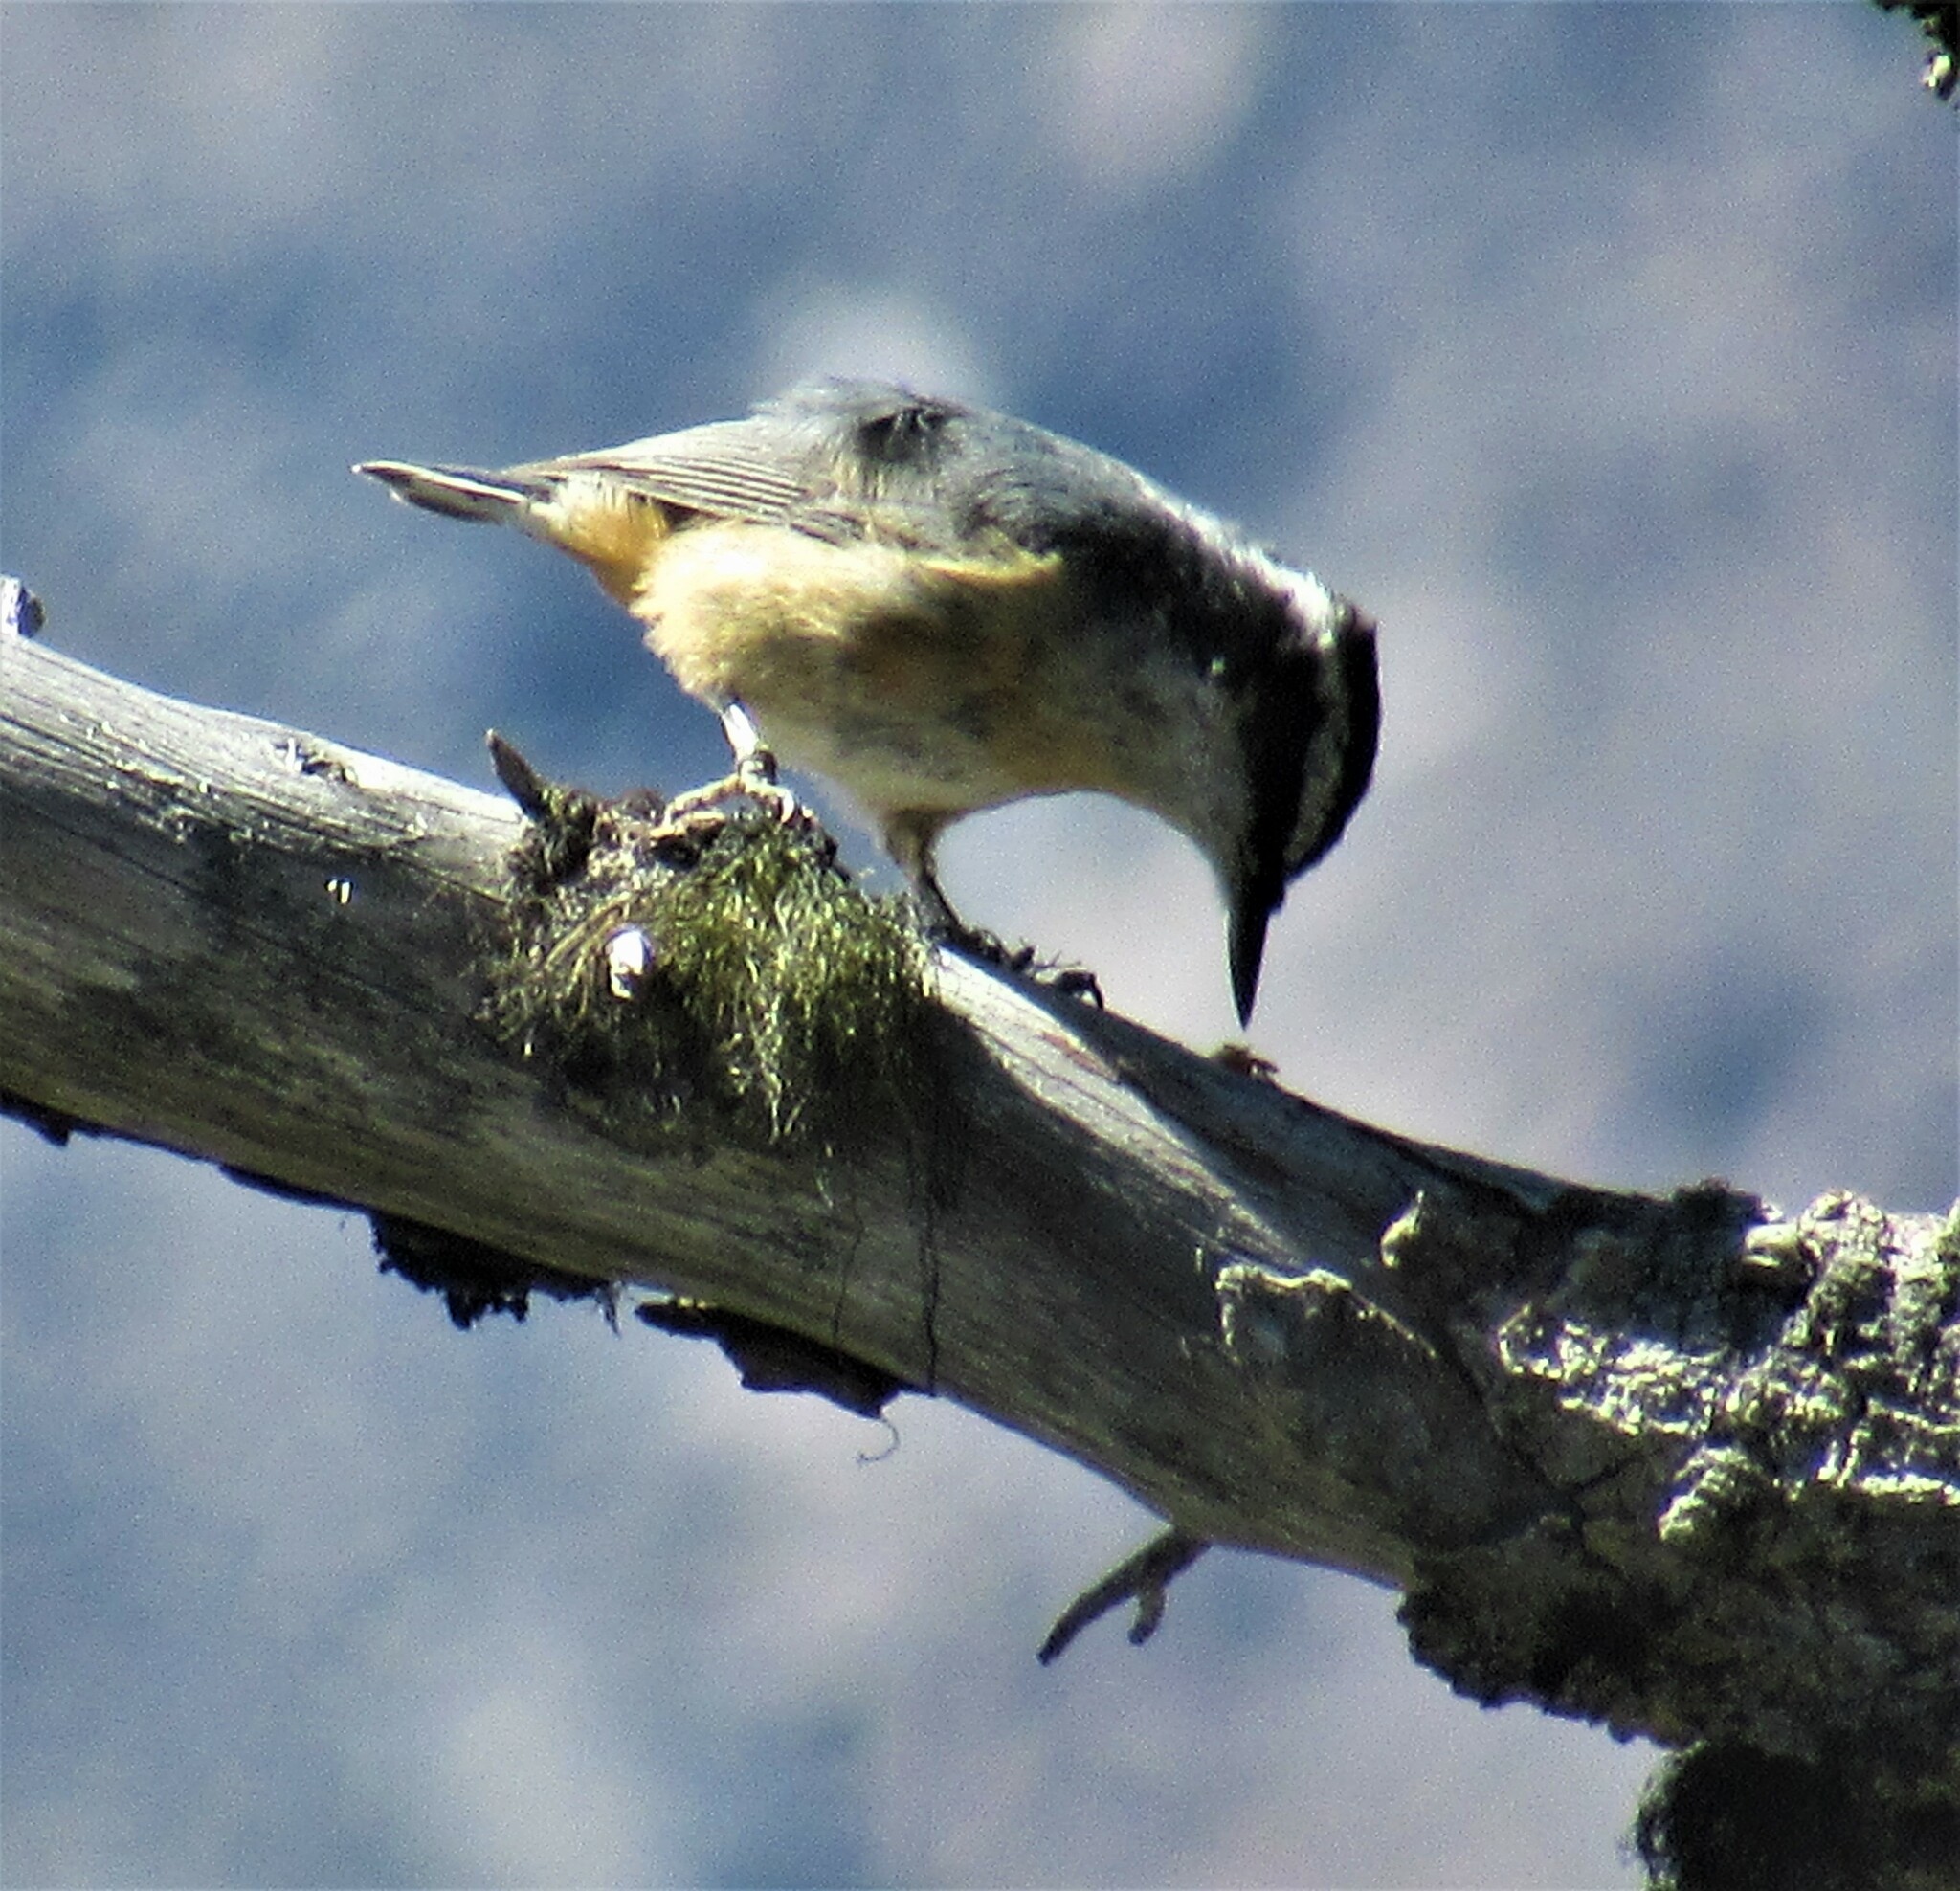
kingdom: Animalia
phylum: Chordata
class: Aves
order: Passeriformes
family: Sittidae
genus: Sitta
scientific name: Sitta canadensis
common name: Red-breasted nuthatch
